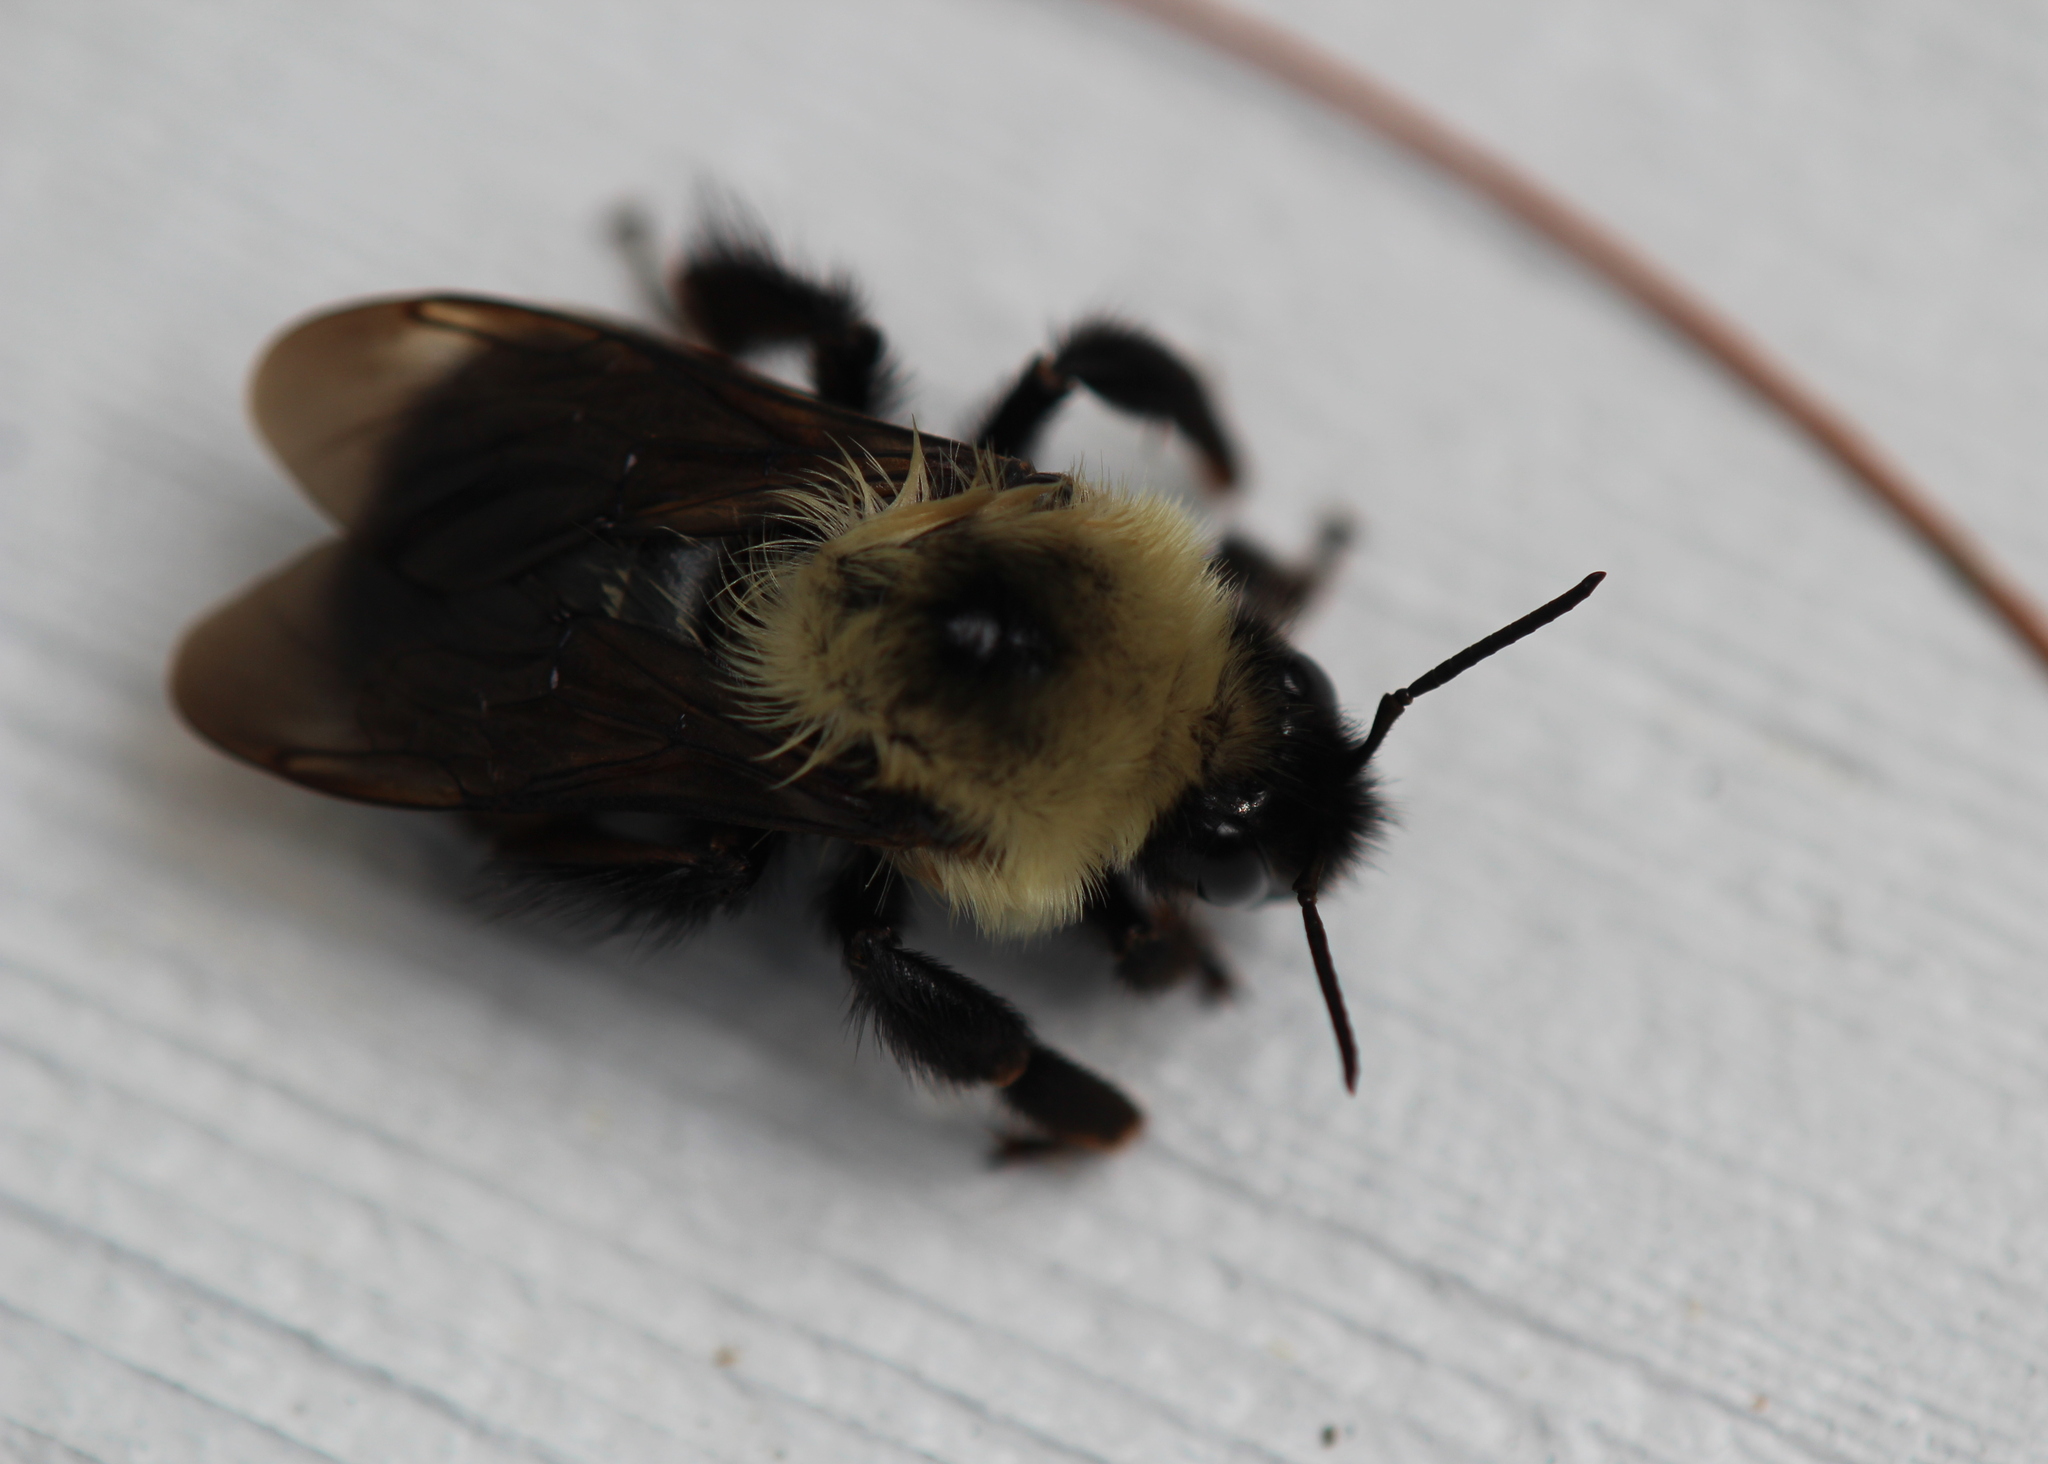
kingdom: Animalia
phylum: Arthropoda
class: Insecta
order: Hymenoptera
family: Apidae
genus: Bombus
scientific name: Bombus bimaculatus
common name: Two-spotted bumble bee
